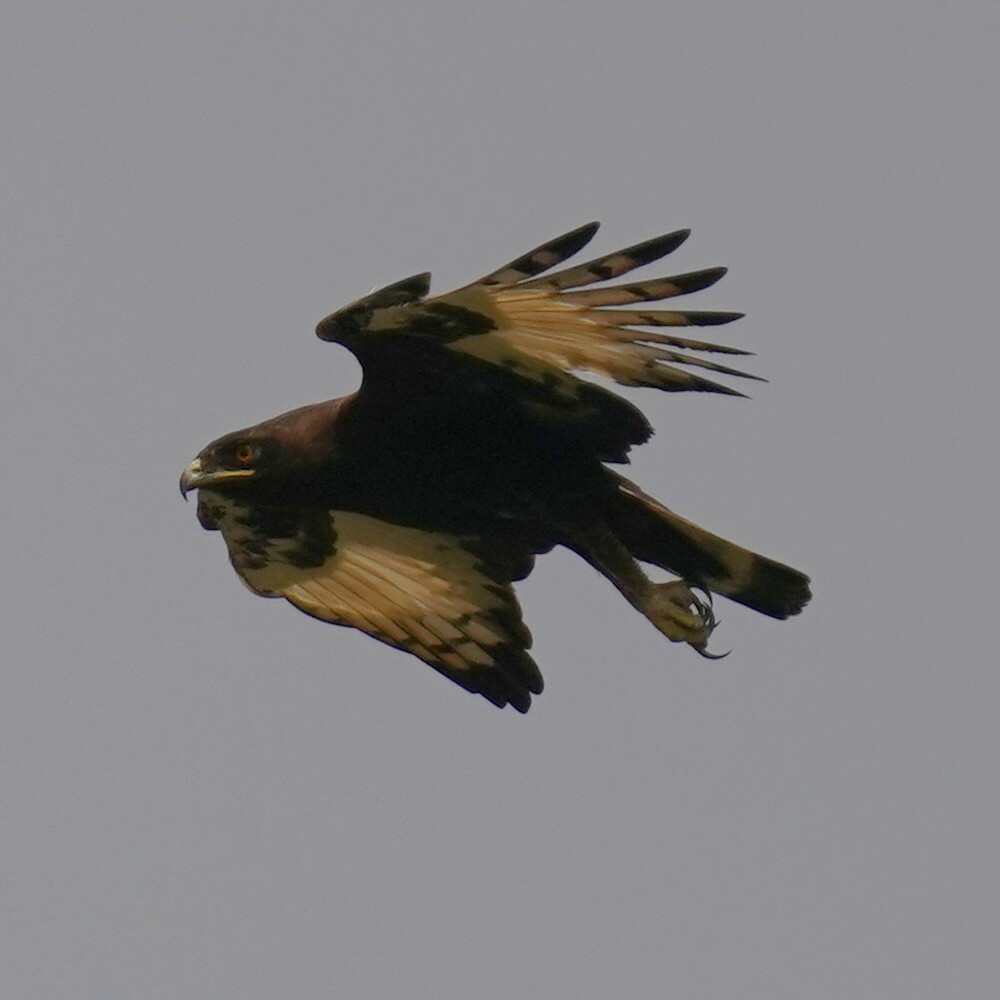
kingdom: Animalia
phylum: Chordata
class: Aves
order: Accipitriformes
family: Accipitridae
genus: Lophaetus
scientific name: Lophaetus occipitalis
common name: Long-crested eagle
